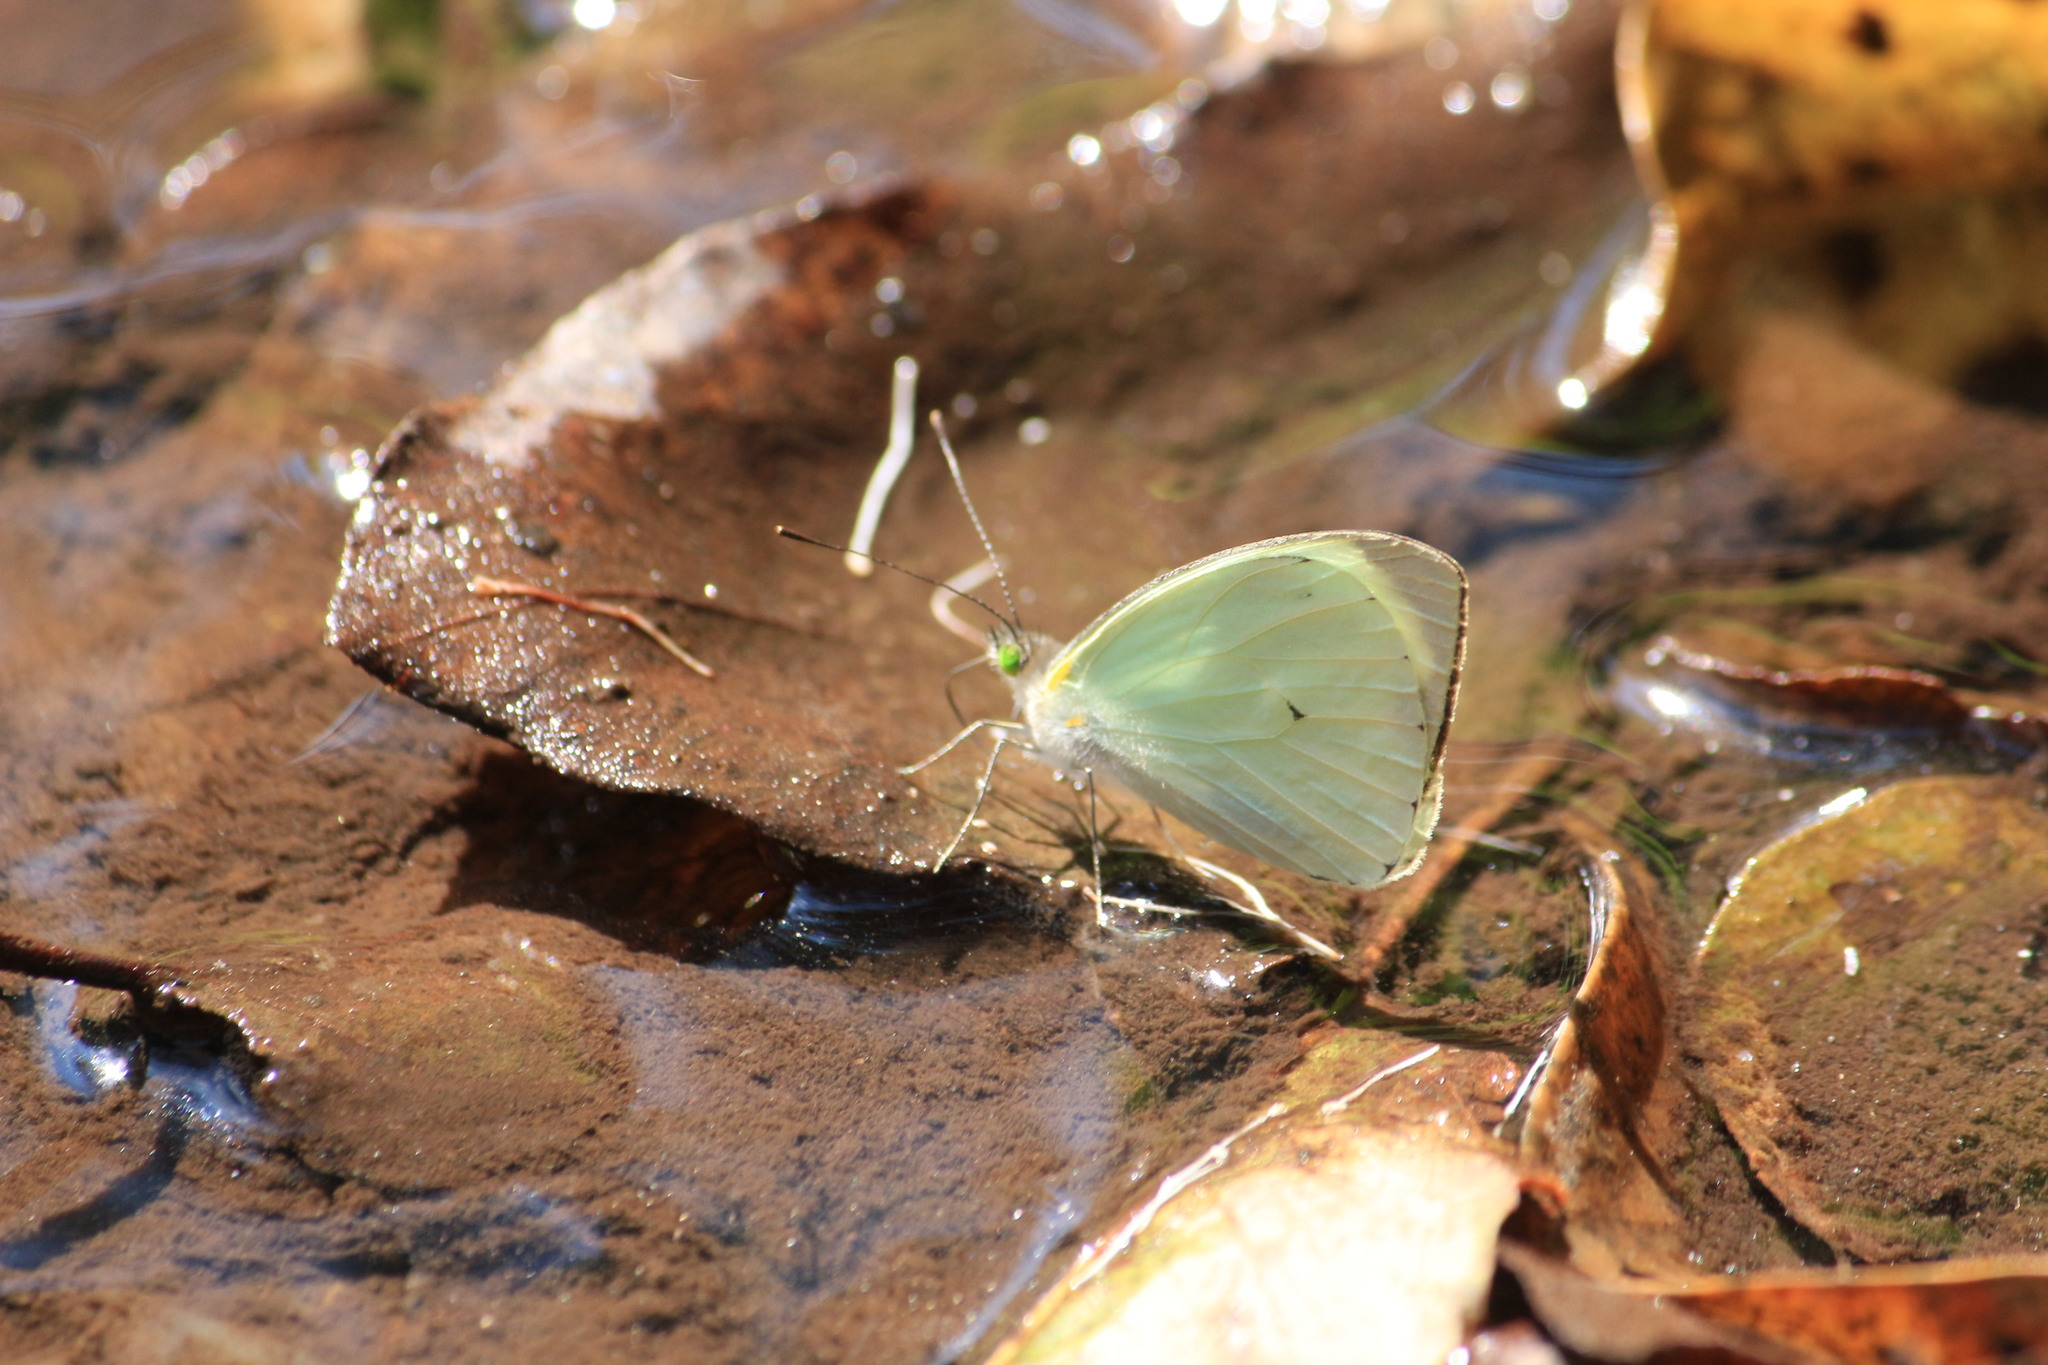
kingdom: Animalia
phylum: Arthropoda
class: Insecta
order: Lepidoptera
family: Pieridae
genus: Leptophobia
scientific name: Leptophobia aripa
